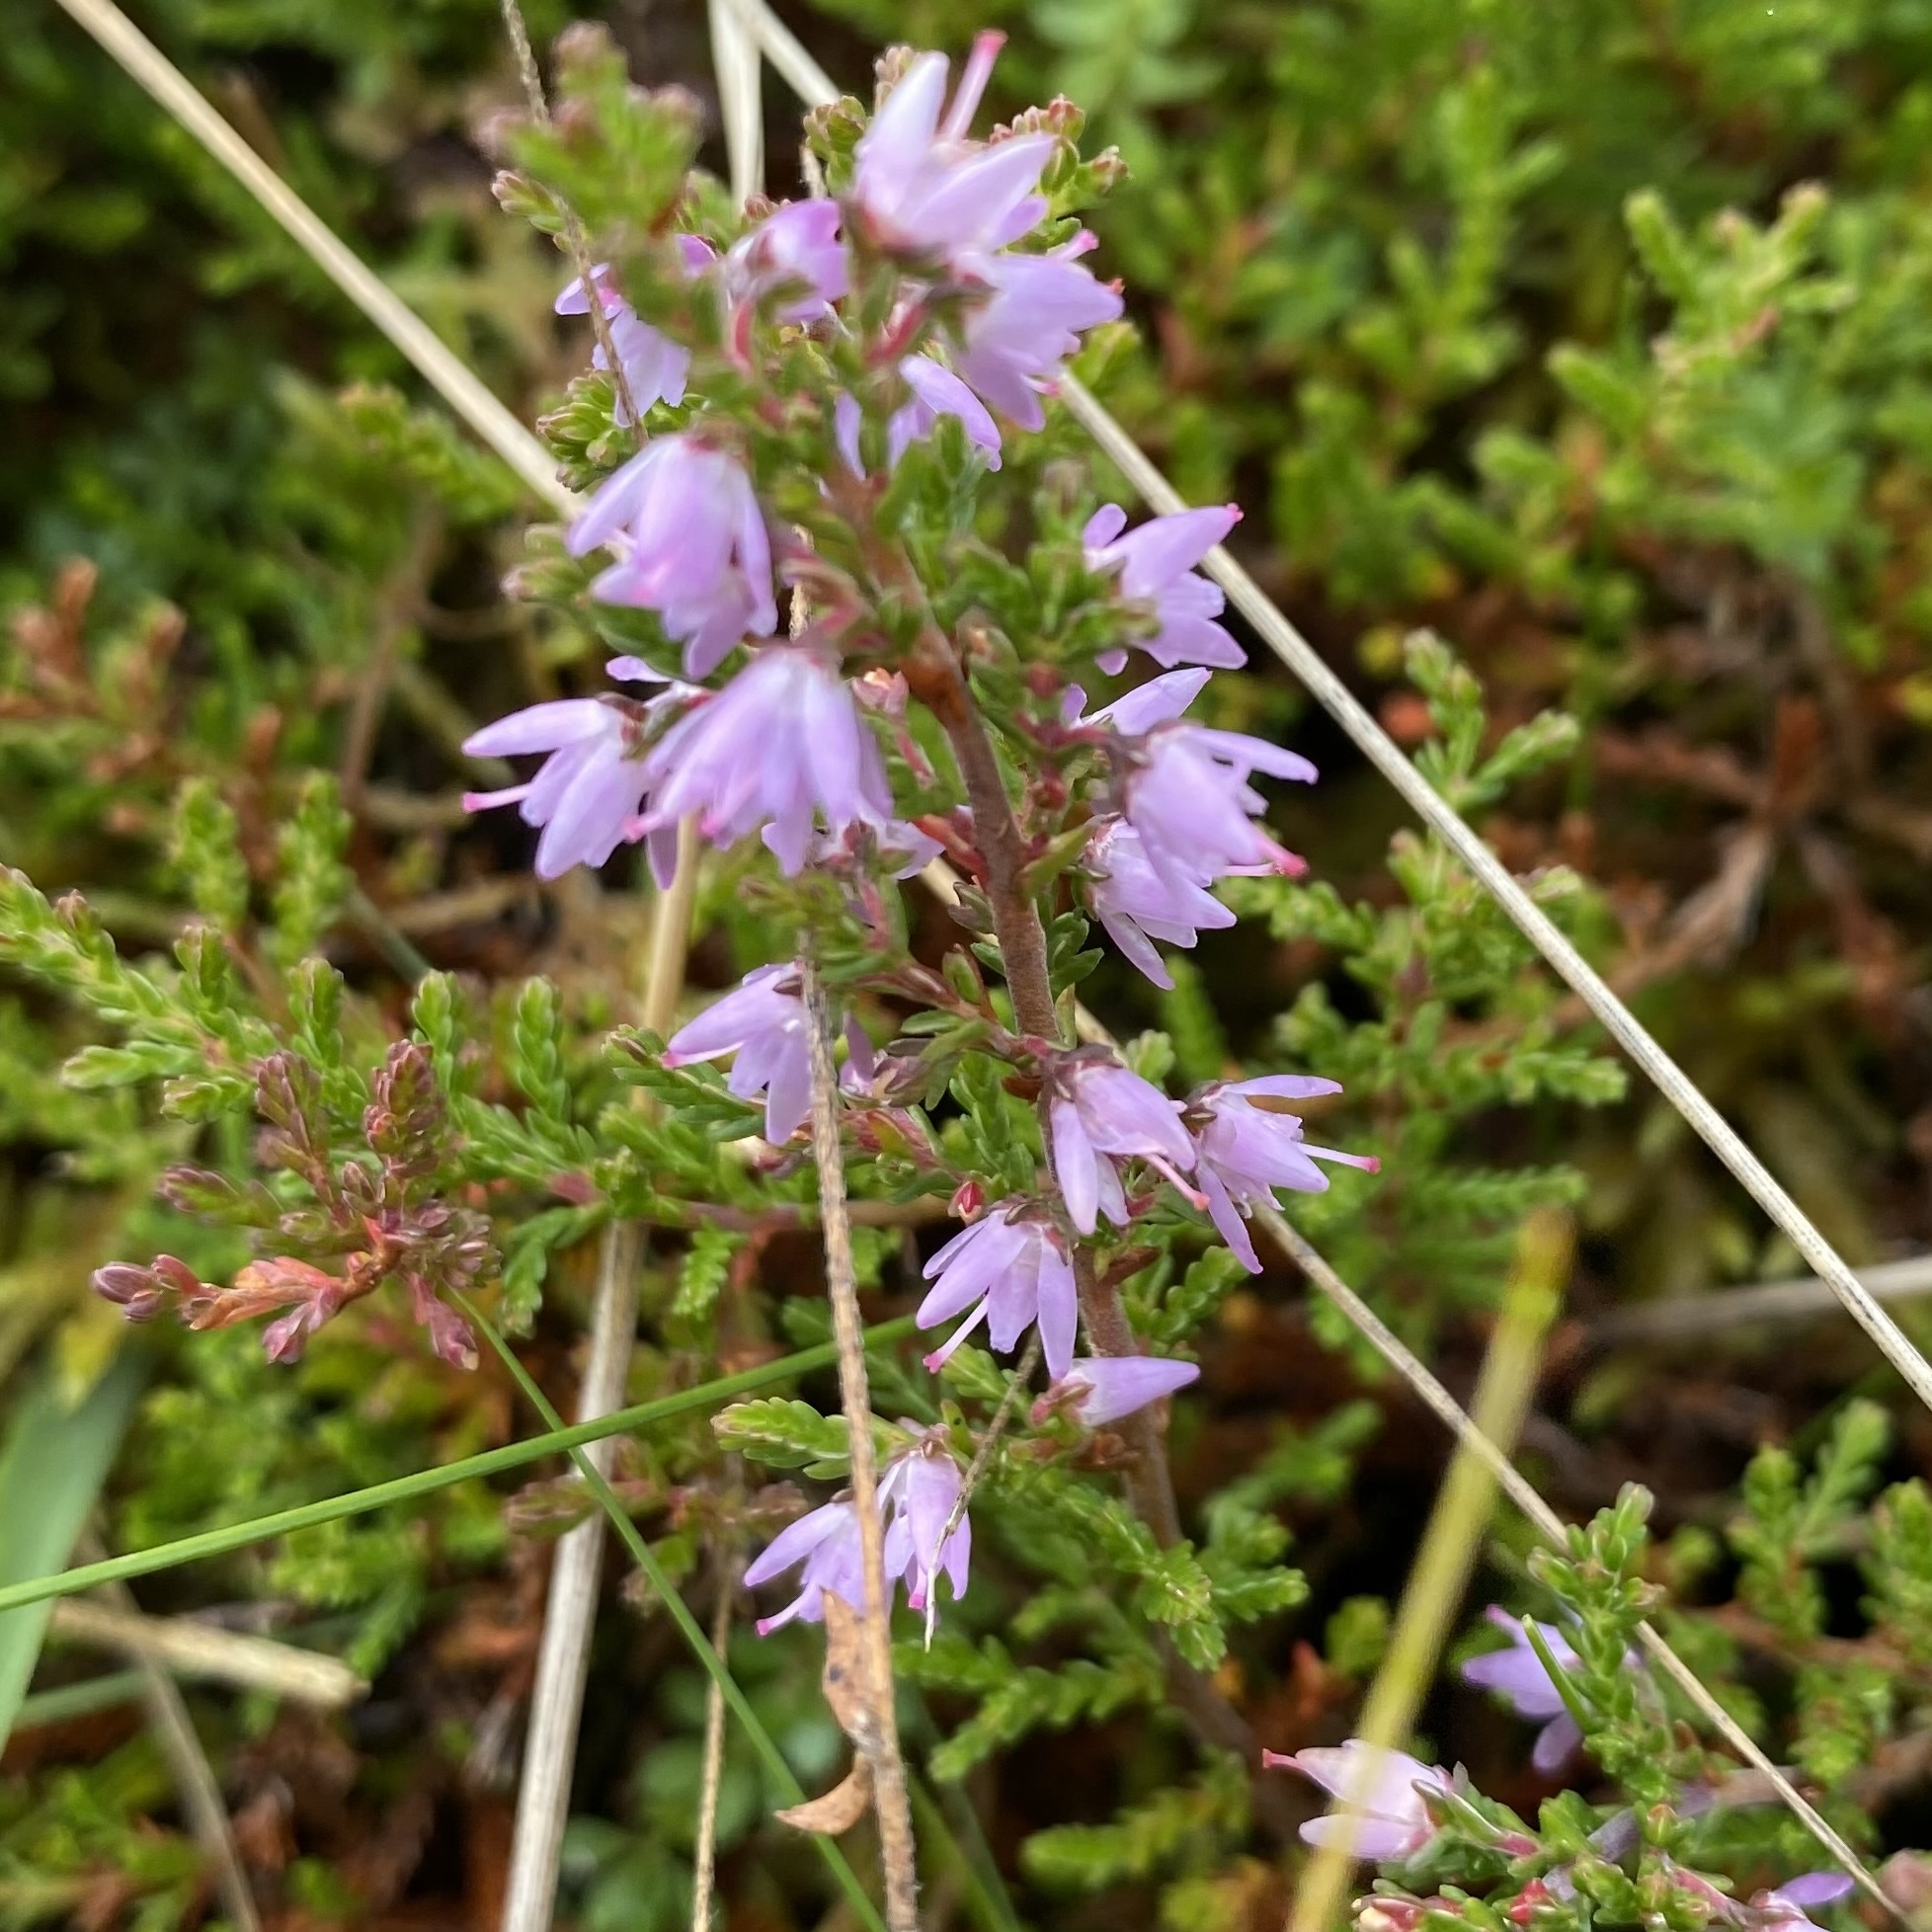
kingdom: Plantae
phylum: Tracheophyta
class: Magnoliopsida
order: Ericales
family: Ericaceae
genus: Calluna
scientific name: Calluna vulgaris
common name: Heather
